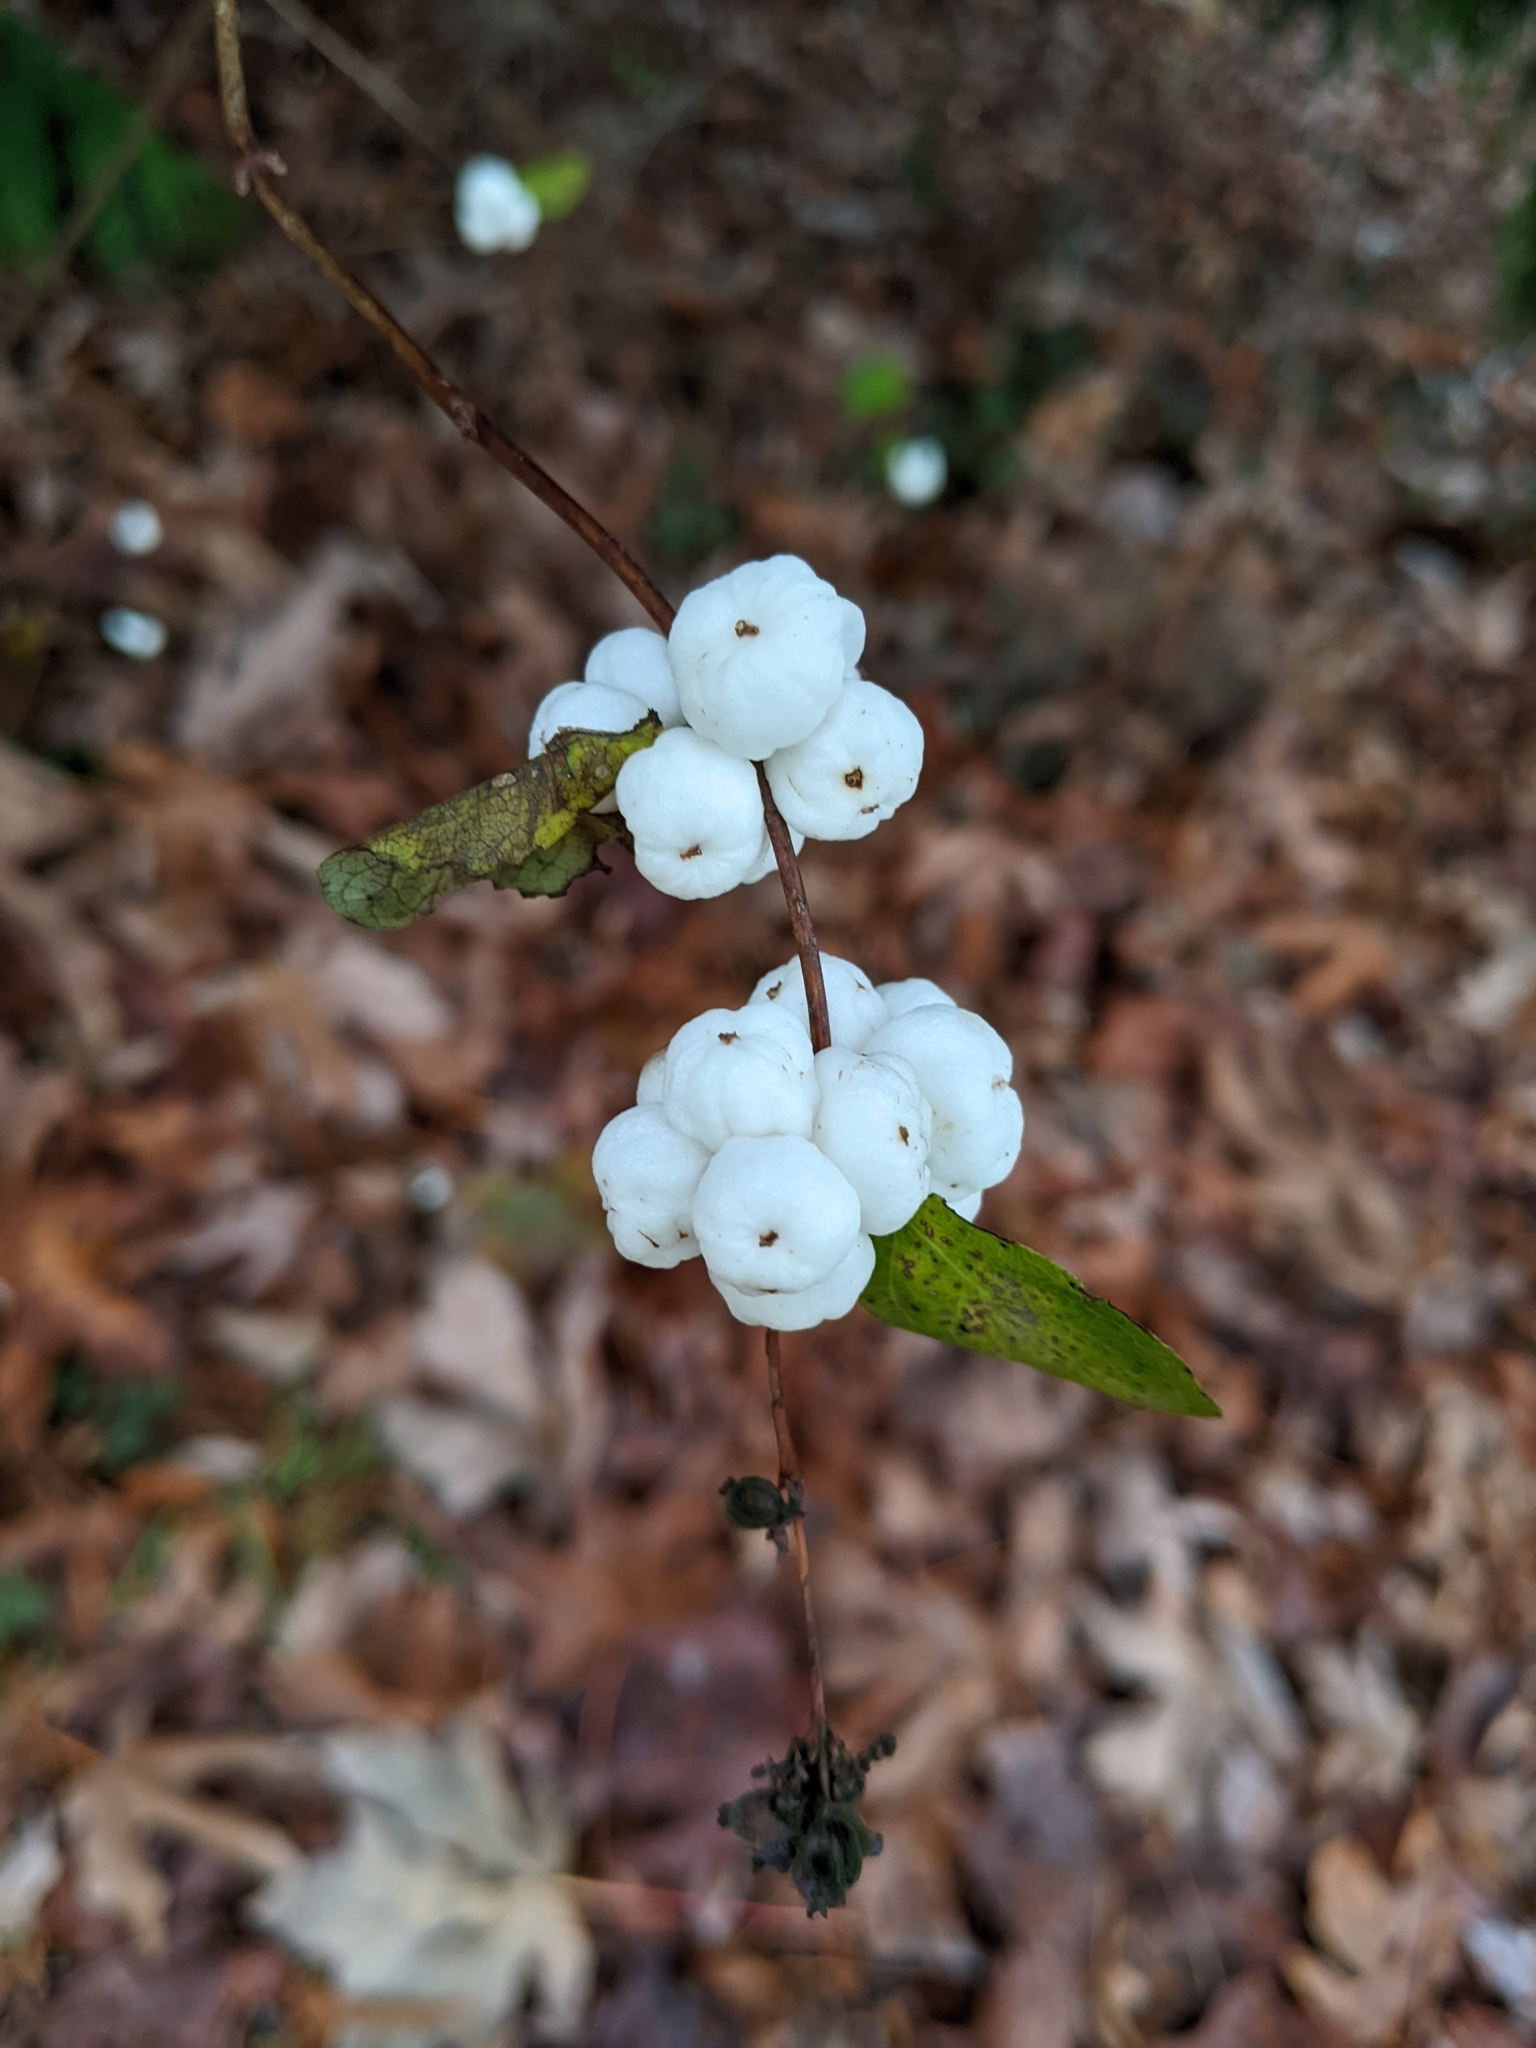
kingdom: Plantae
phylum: Tracheophyta
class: Magnoliopsida
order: Dipsacales
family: Caprifoliaceae
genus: Symphoricarpos
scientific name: Symphoricarpos albus
